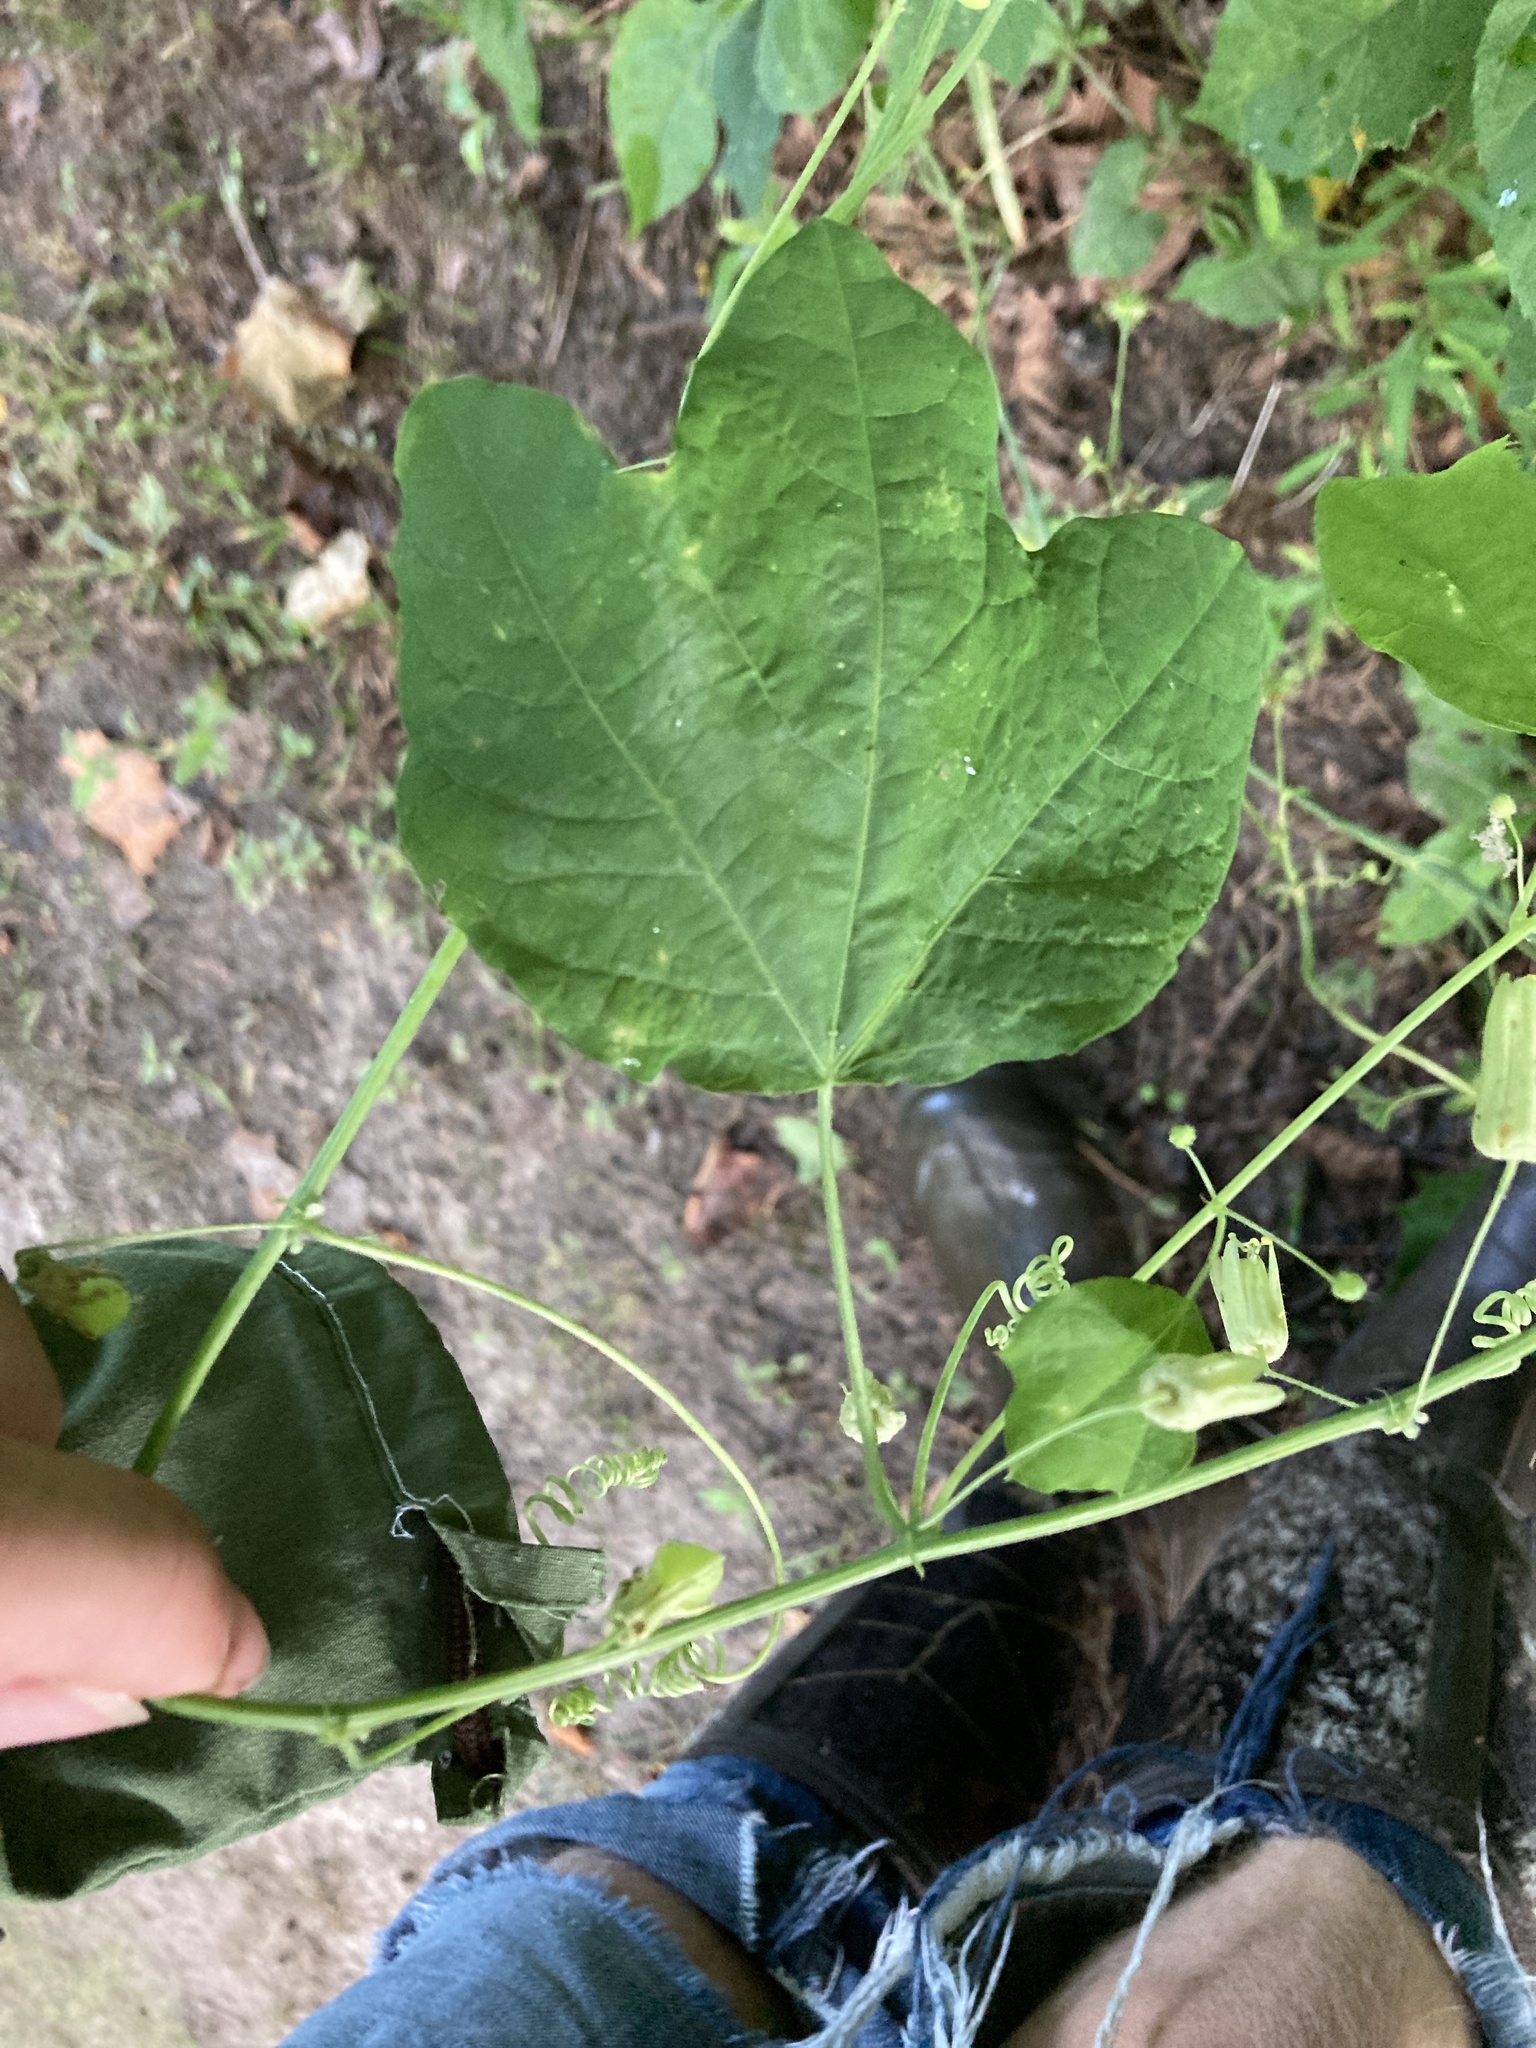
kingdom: Plantae
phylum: Tracheophyta
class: Magnoliopsida
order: Malpighiales
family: Passifloraceae
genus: Passiflora
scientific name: Passiflora lutea
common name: Yellow passionflower
